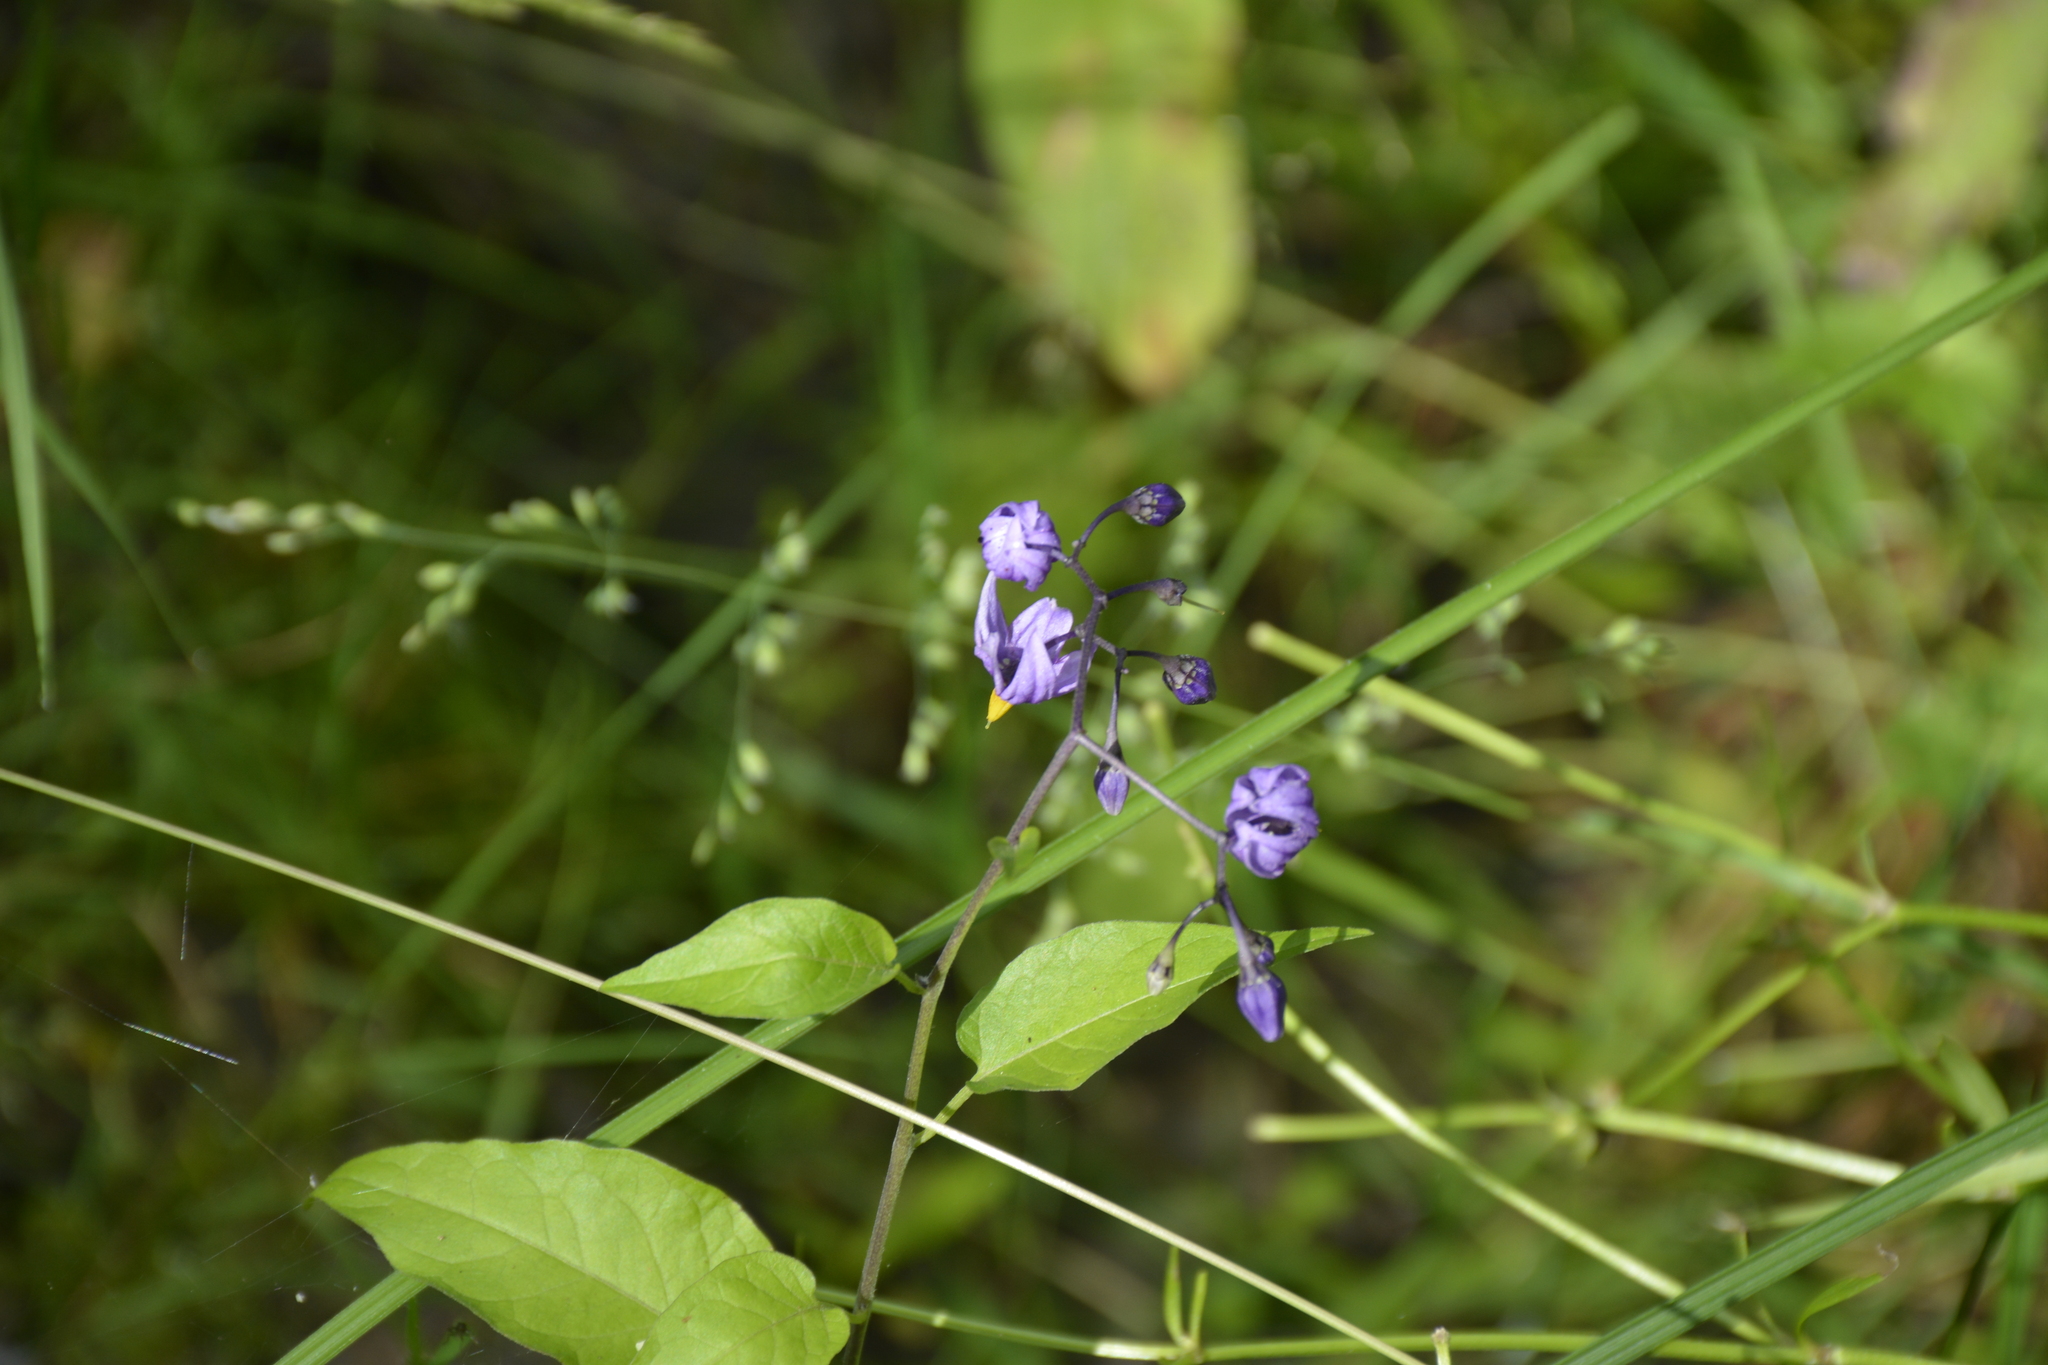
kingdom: Plantae
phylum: Tracheophyta
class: Magnoliopsida
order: Solanales
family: Solanaceae
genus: Solanum
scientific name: Solanum dulcamara
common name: Climbing nightshade
